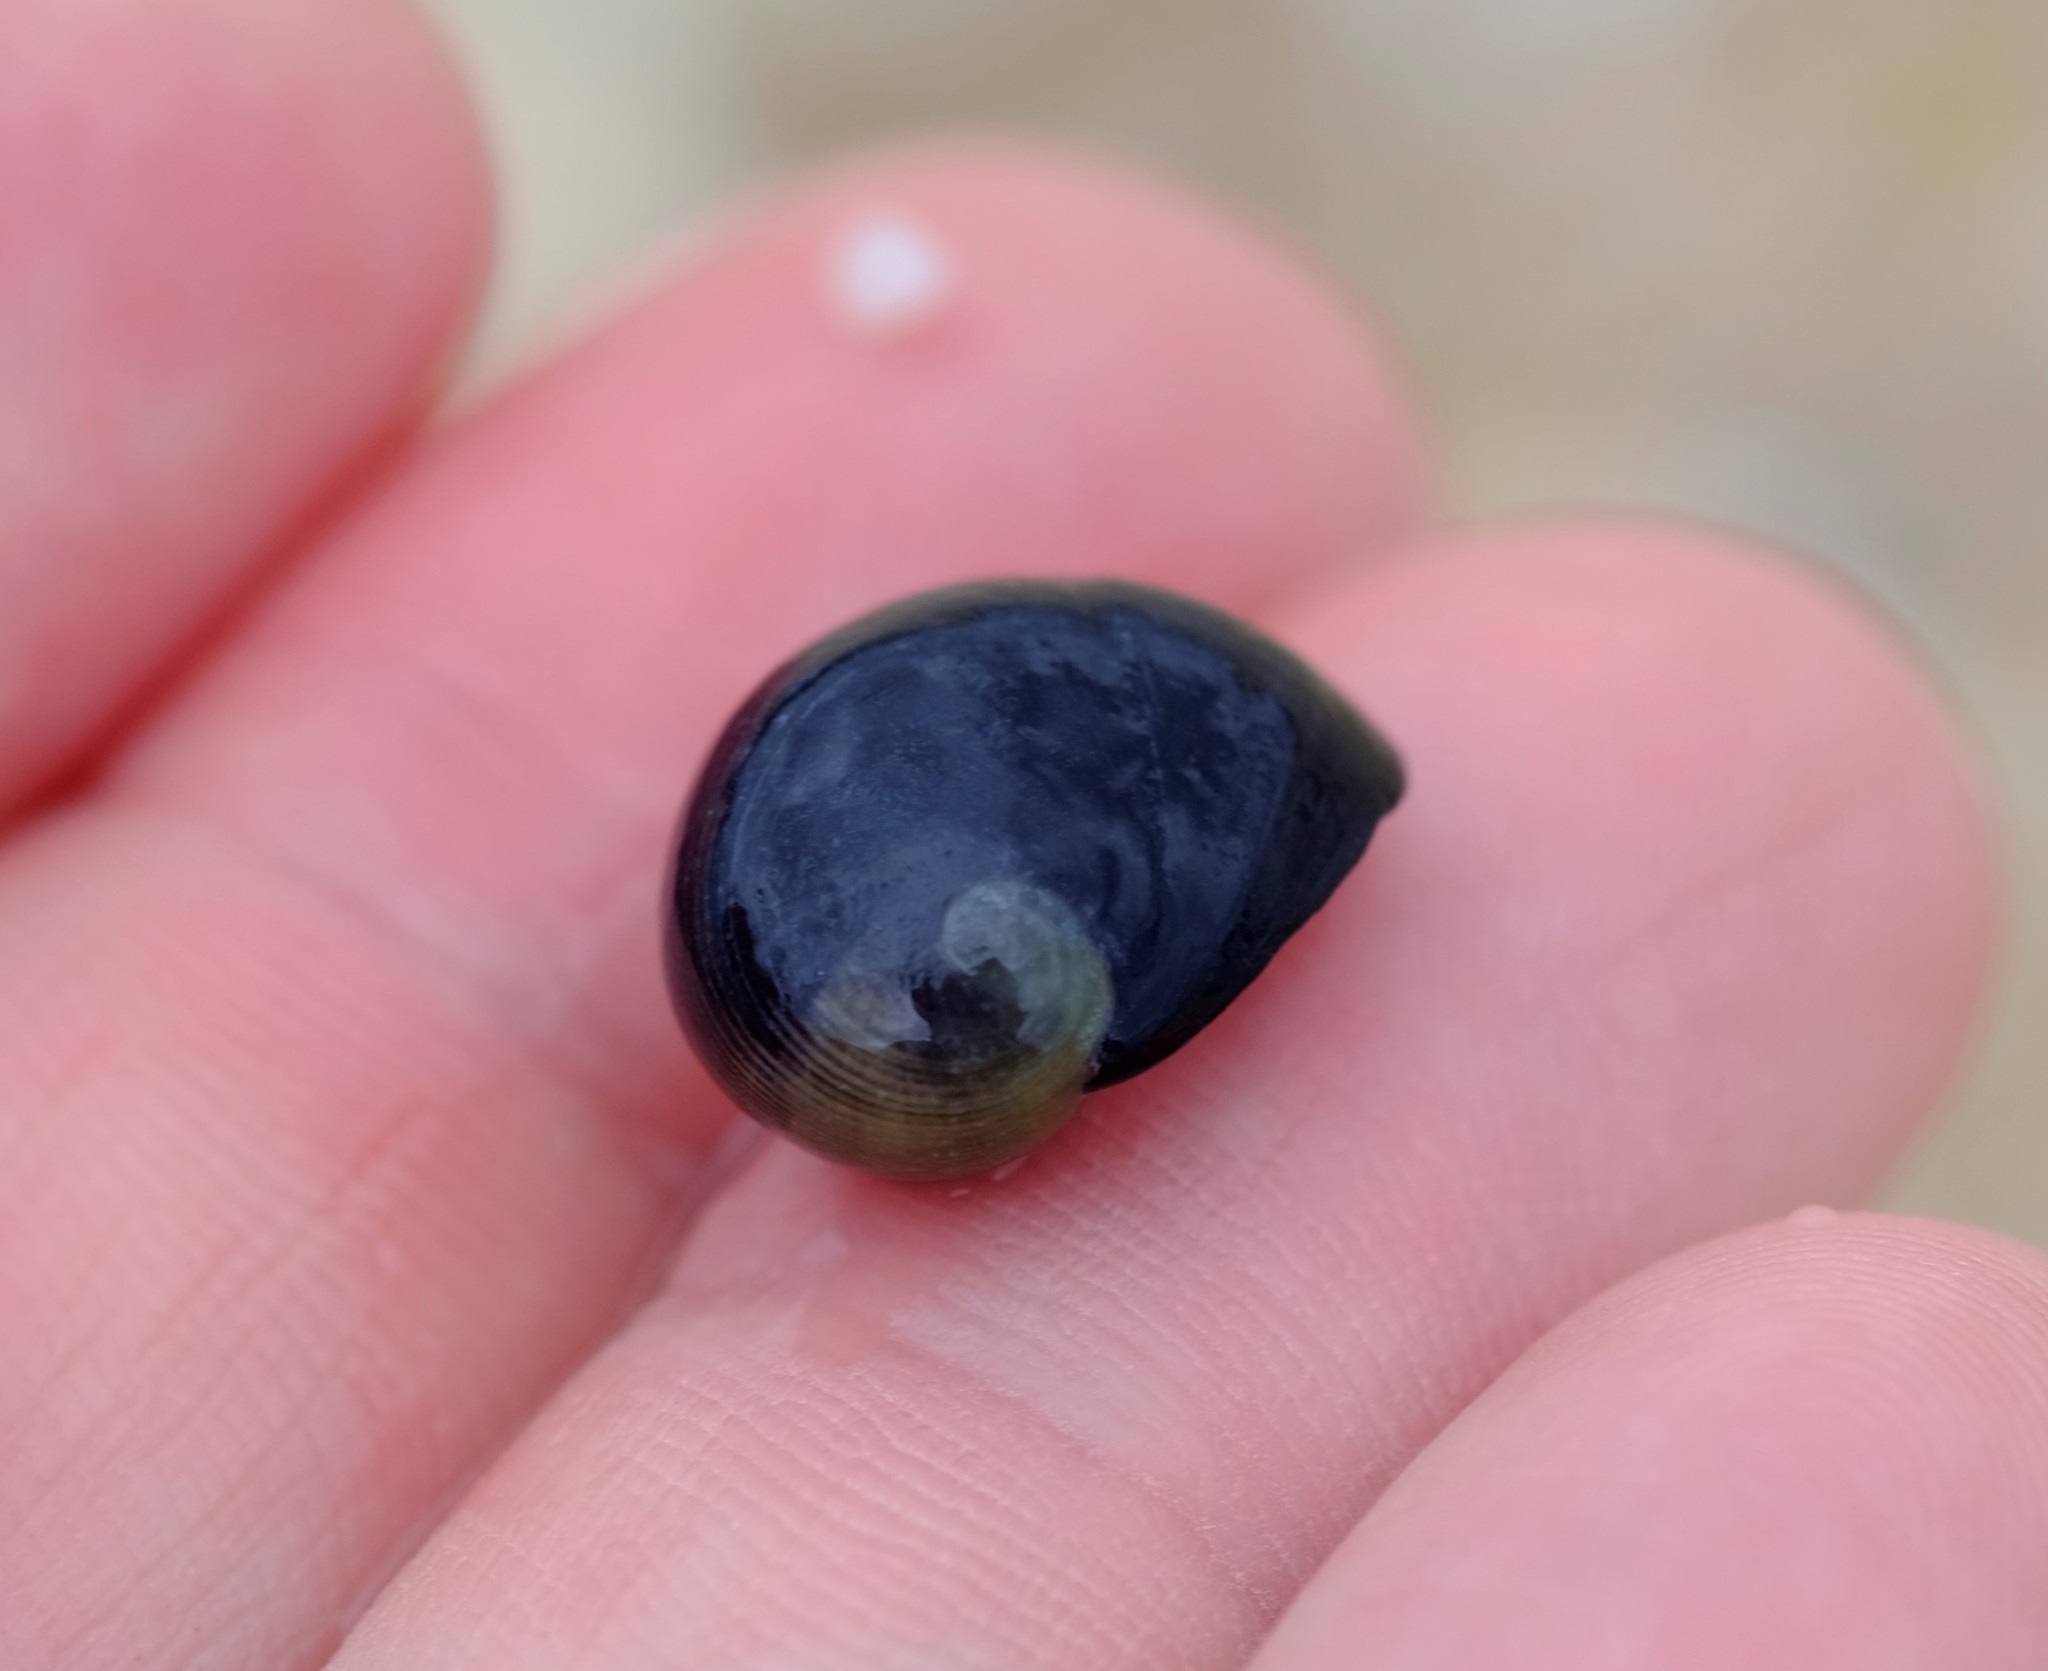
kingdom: Animalia
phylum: Mollusca
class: Gastropoda
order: Cycloneritida
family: Neritidae
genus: Nerita
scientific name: Nerita atramentosa
